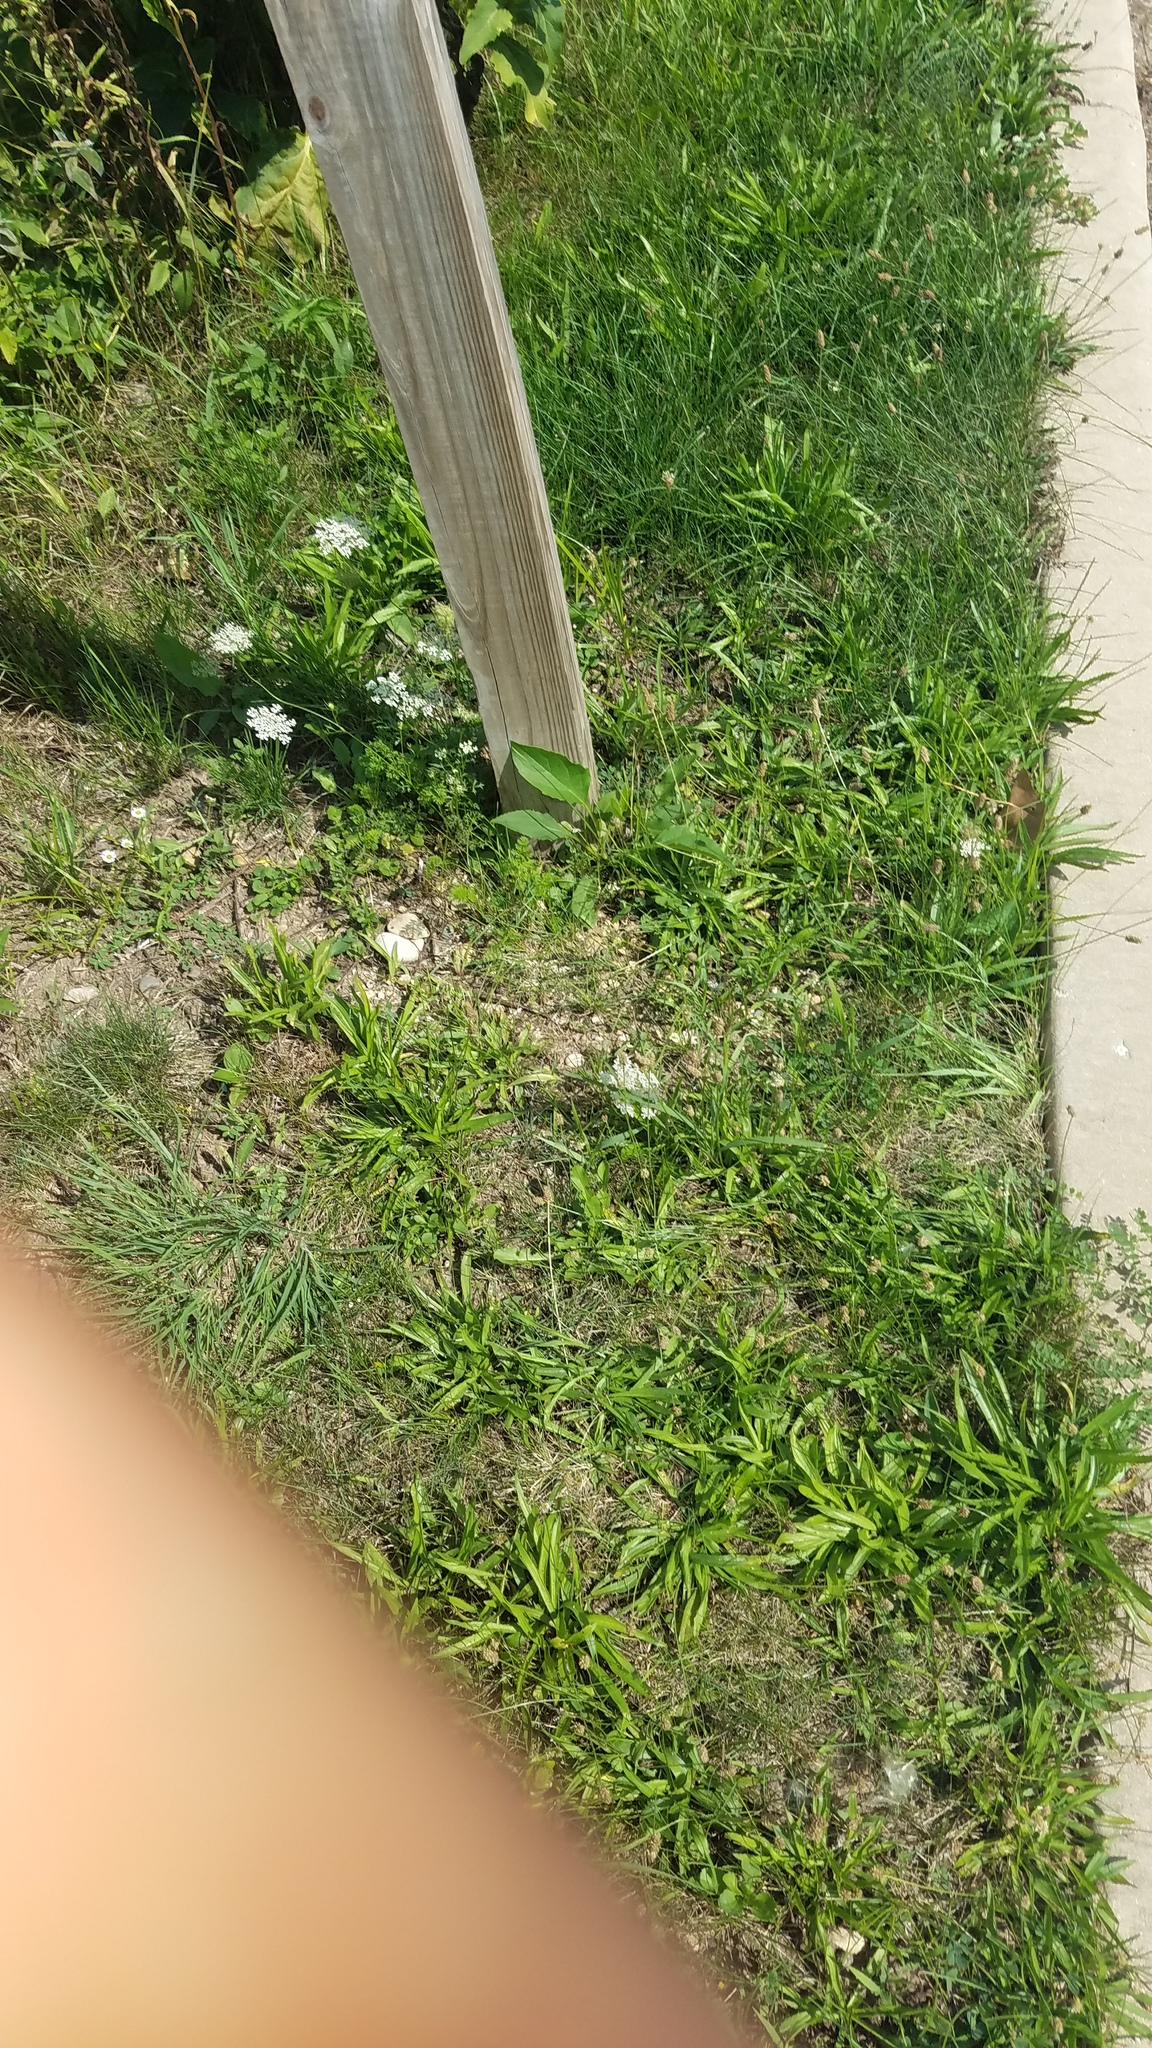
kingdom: Plantae
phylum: Tracheophyta
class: Magnoliopsida
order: Apiales
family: Apiaceae
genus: Daucus
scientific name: Daucus carota
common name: Wild carrot
